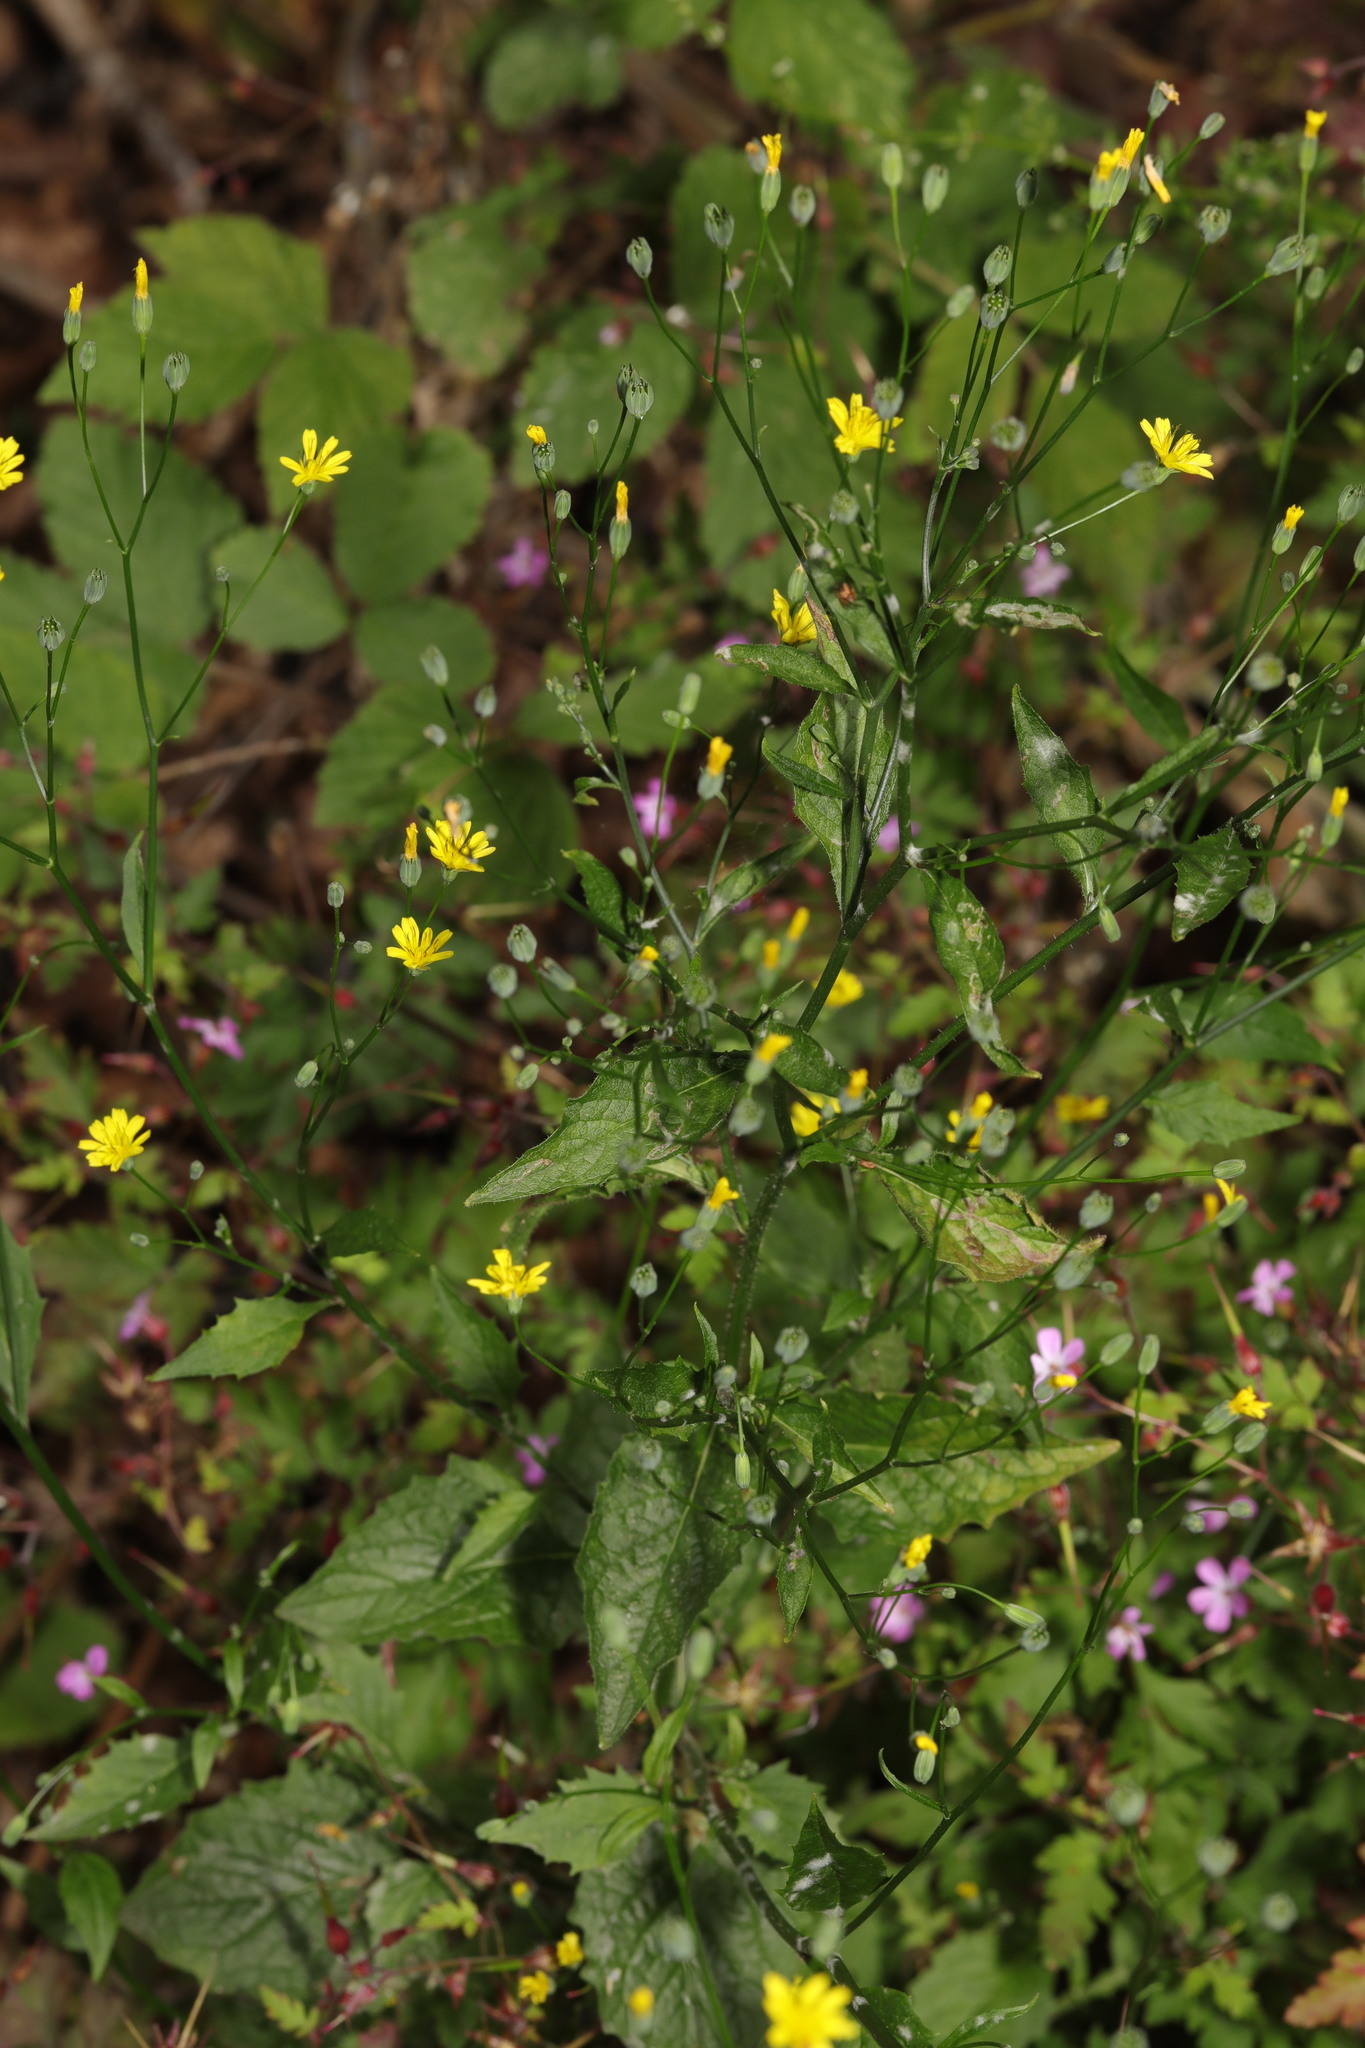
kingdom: Plantae
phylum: Tracheophyta
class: Magnoliopsida
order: Asterales
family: Asteraceae
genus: Lapsana
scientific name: Lapsana communis
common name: Nipplewort
